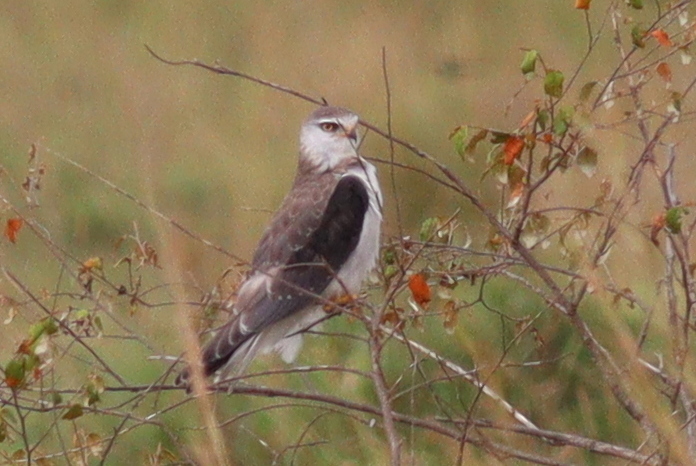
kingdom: Animalia
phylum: Chordata
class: Aves
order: Accipitriformes
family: Accipitridae
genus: Elanus
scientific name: Elanus caeruleus
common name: Black-winged kite
